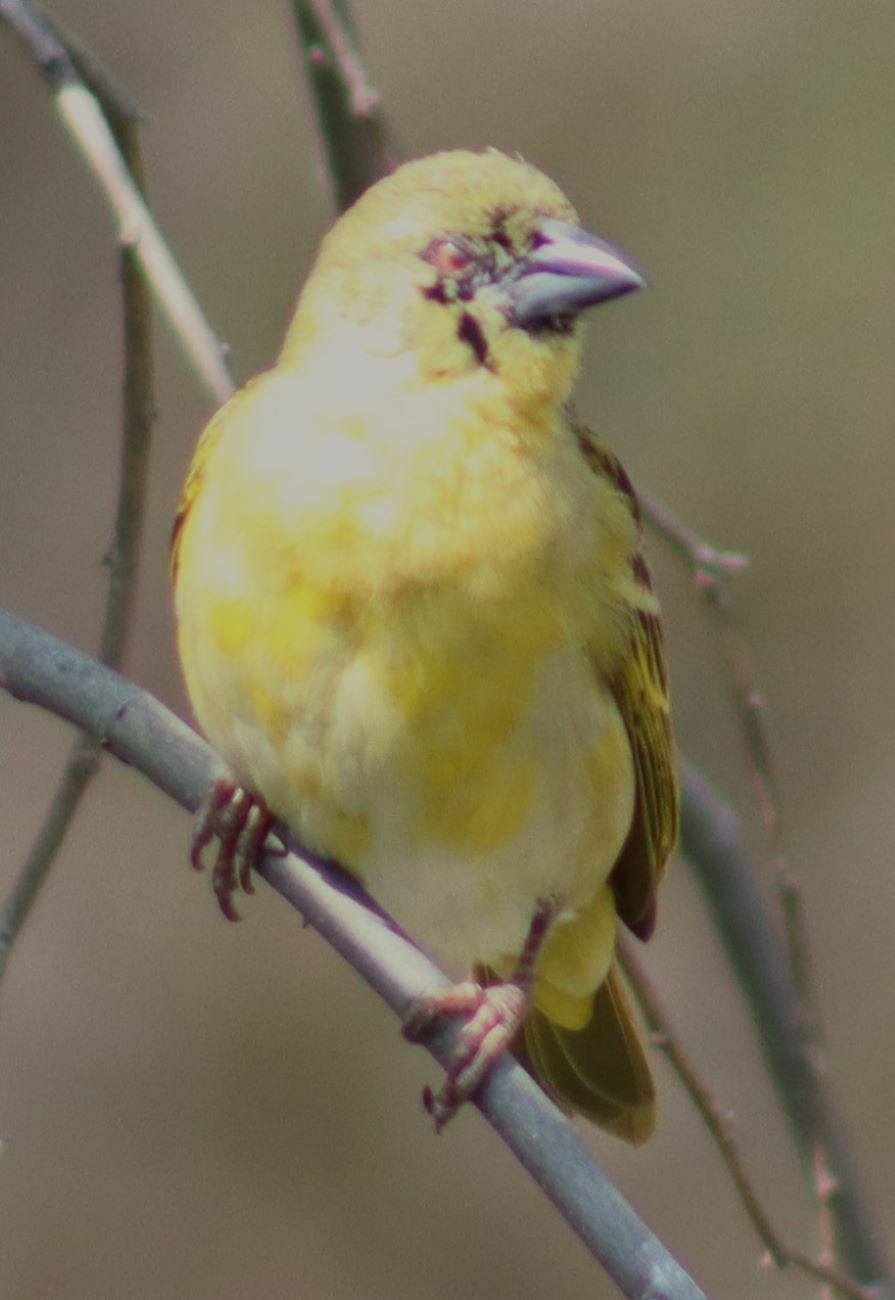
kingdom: Animalia
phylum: Chordata
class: Aves
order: Passeriformes
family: Ploceidae
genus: Ploceus
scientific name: Ploceus velatus
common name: Southern masked weaver
